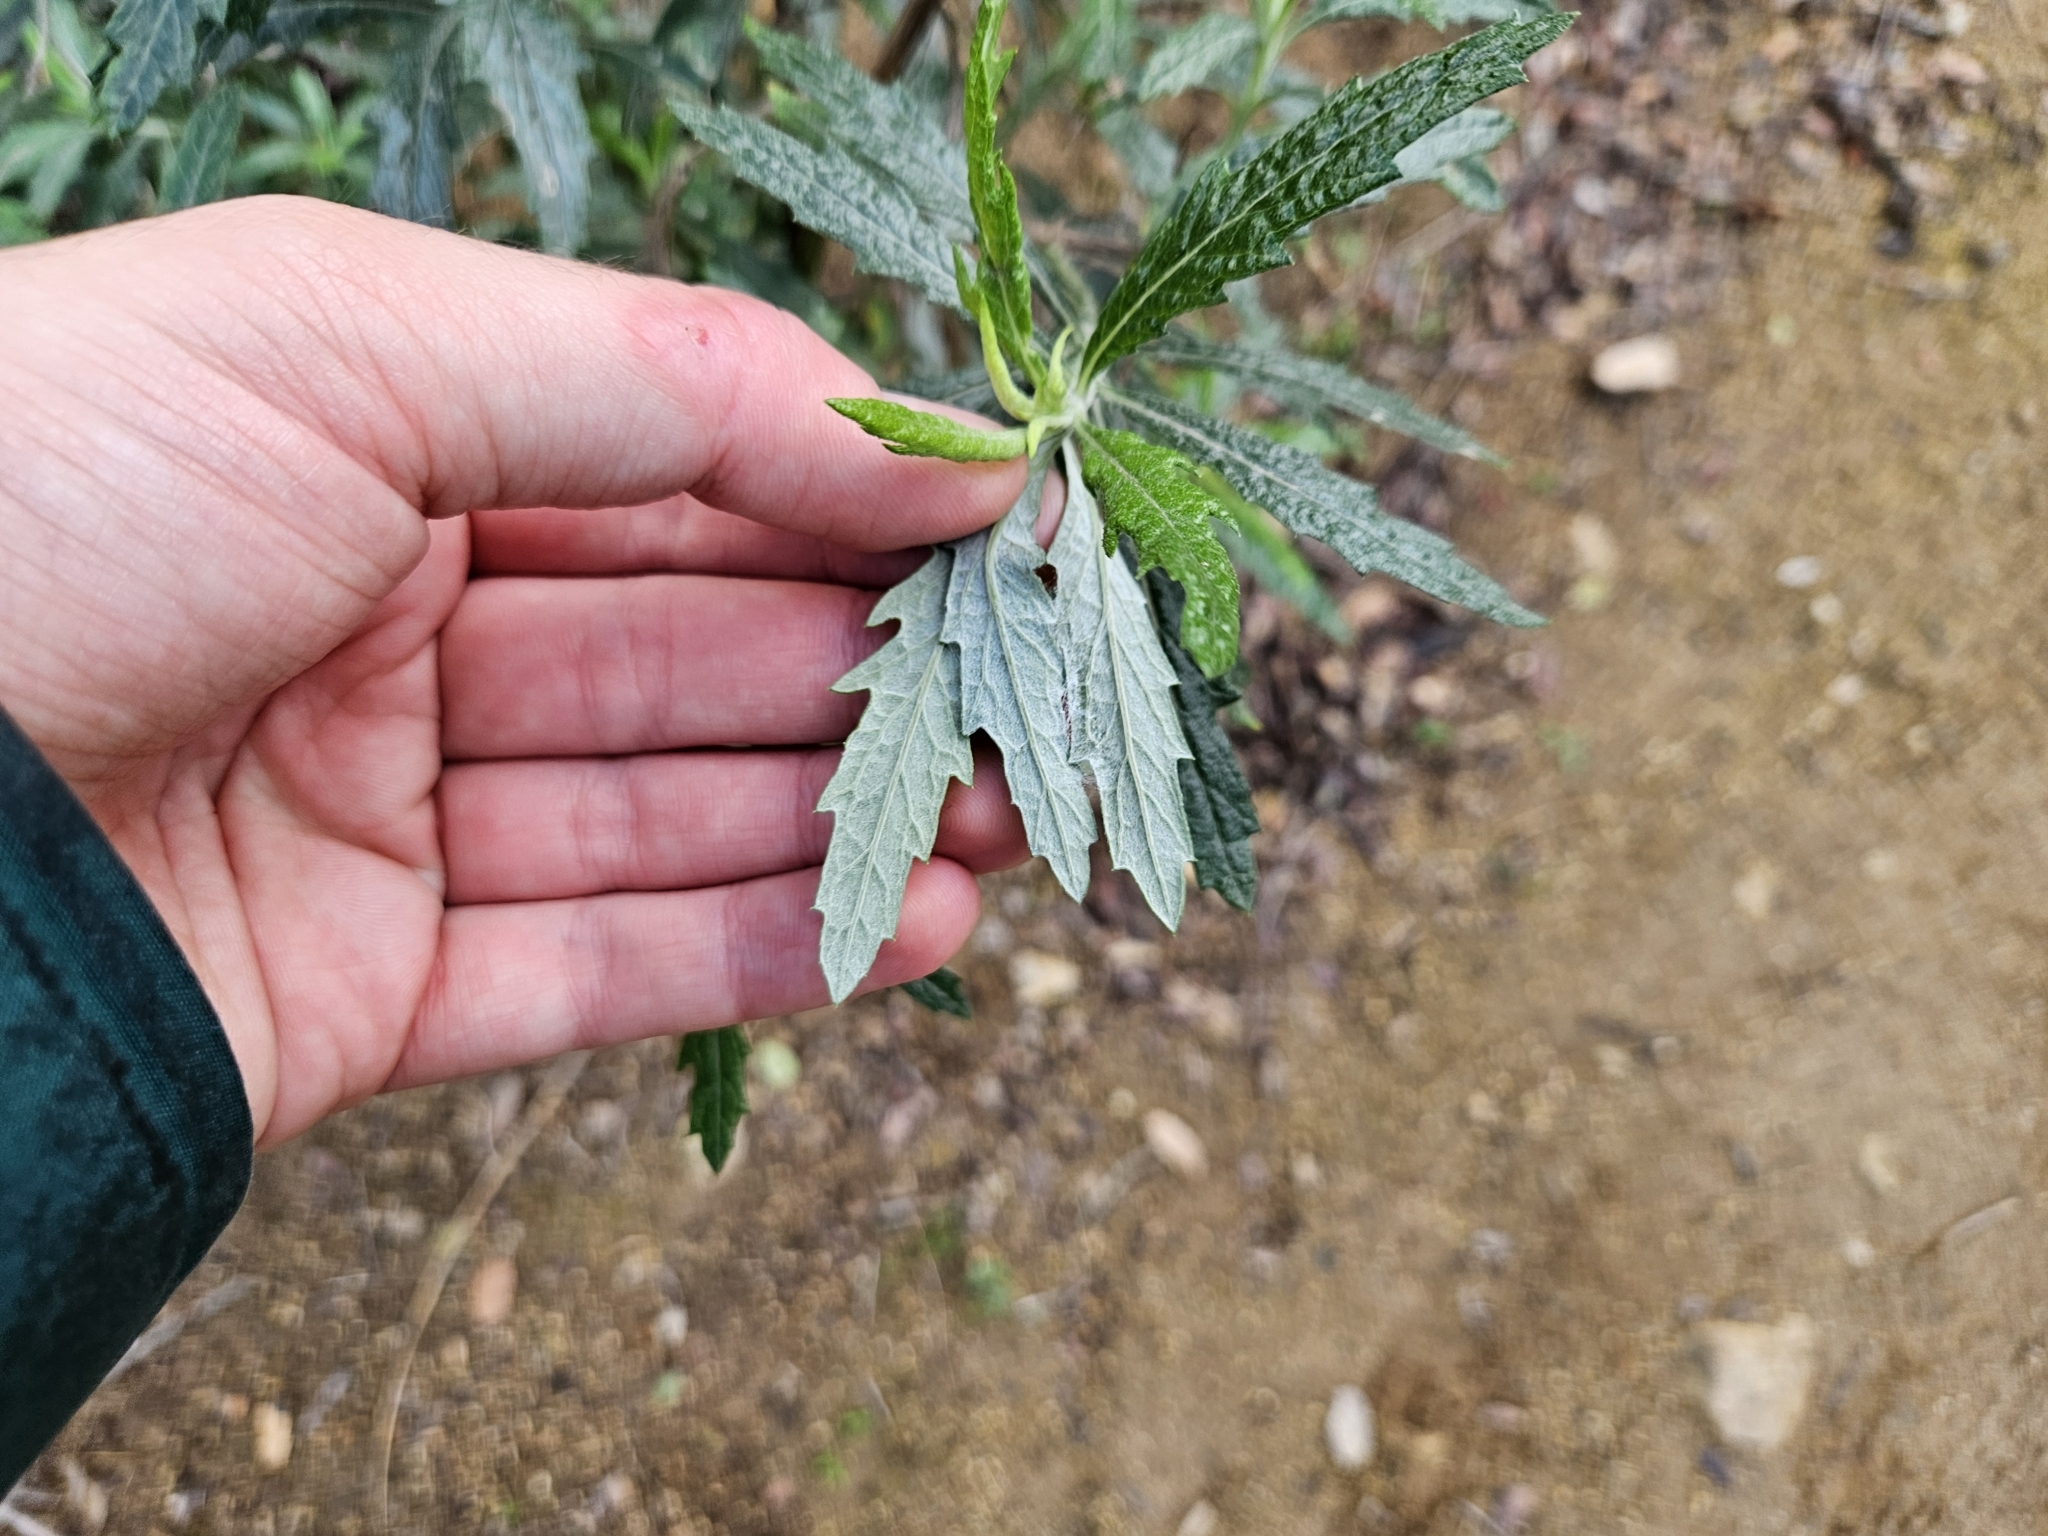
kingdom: Plantae
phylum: Tracheophyta
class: Magnoliopsida
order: Asterales
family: Asteraceae
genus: Senecio
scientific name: Senecio pterophorus
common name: Shoddy ragwort
